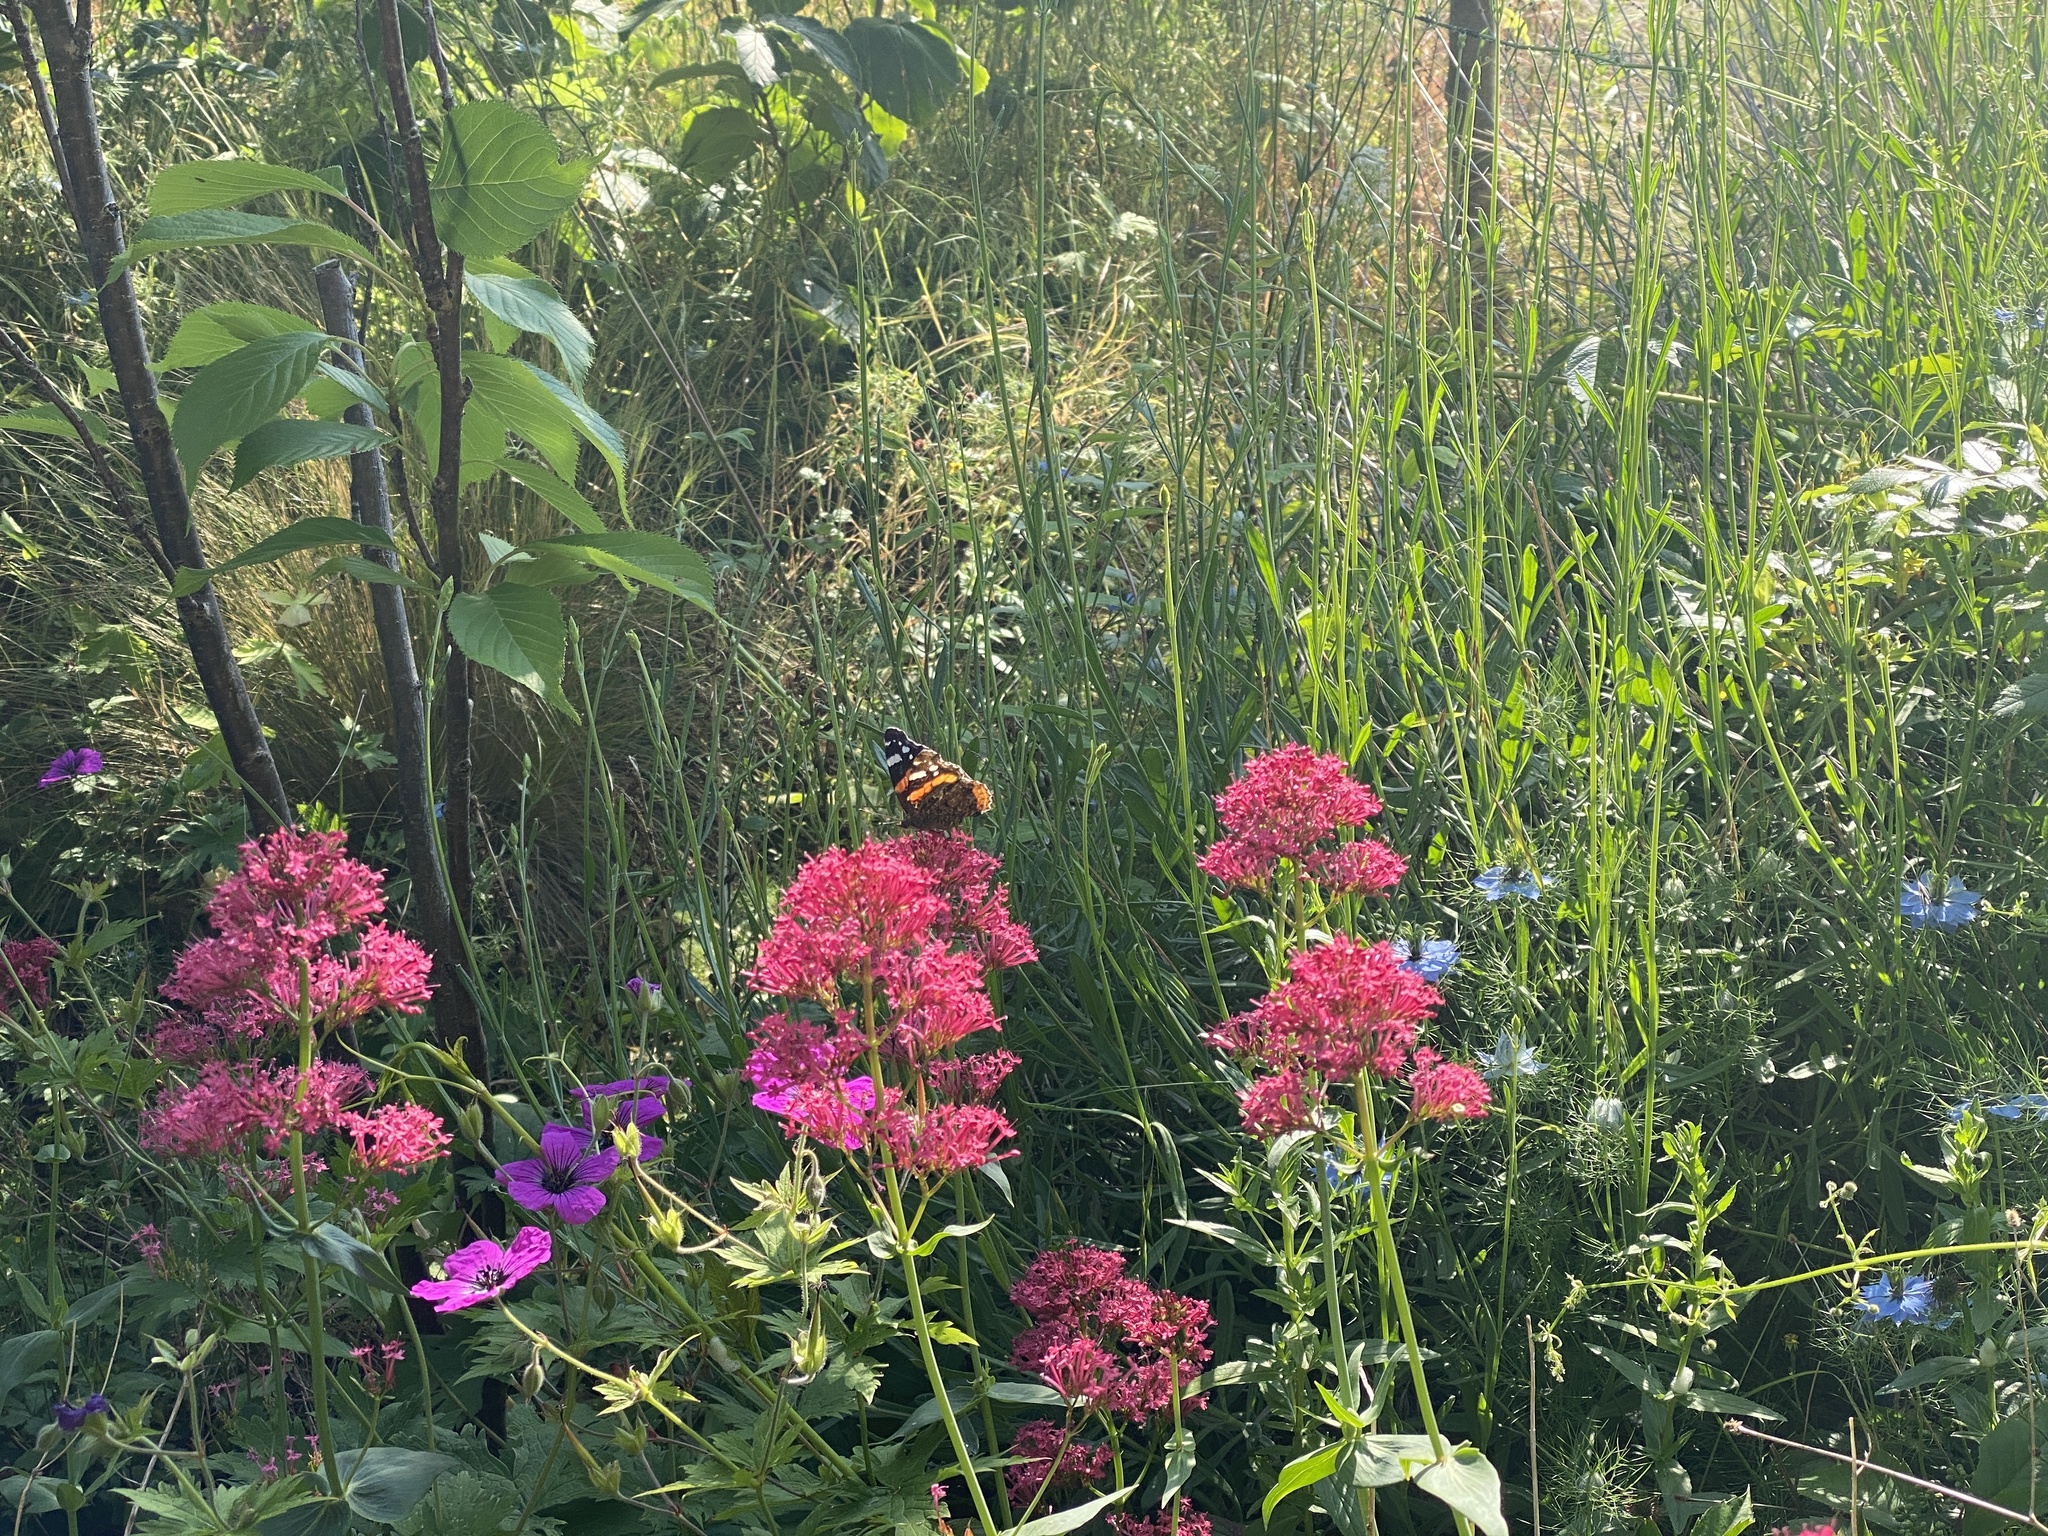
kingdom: Animalia
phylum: Arthropoda
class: Insecta
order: Lepidoptera
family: Nymphalidae
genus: Vanessa
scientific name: Vanessa atalanta
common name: Red admiral
